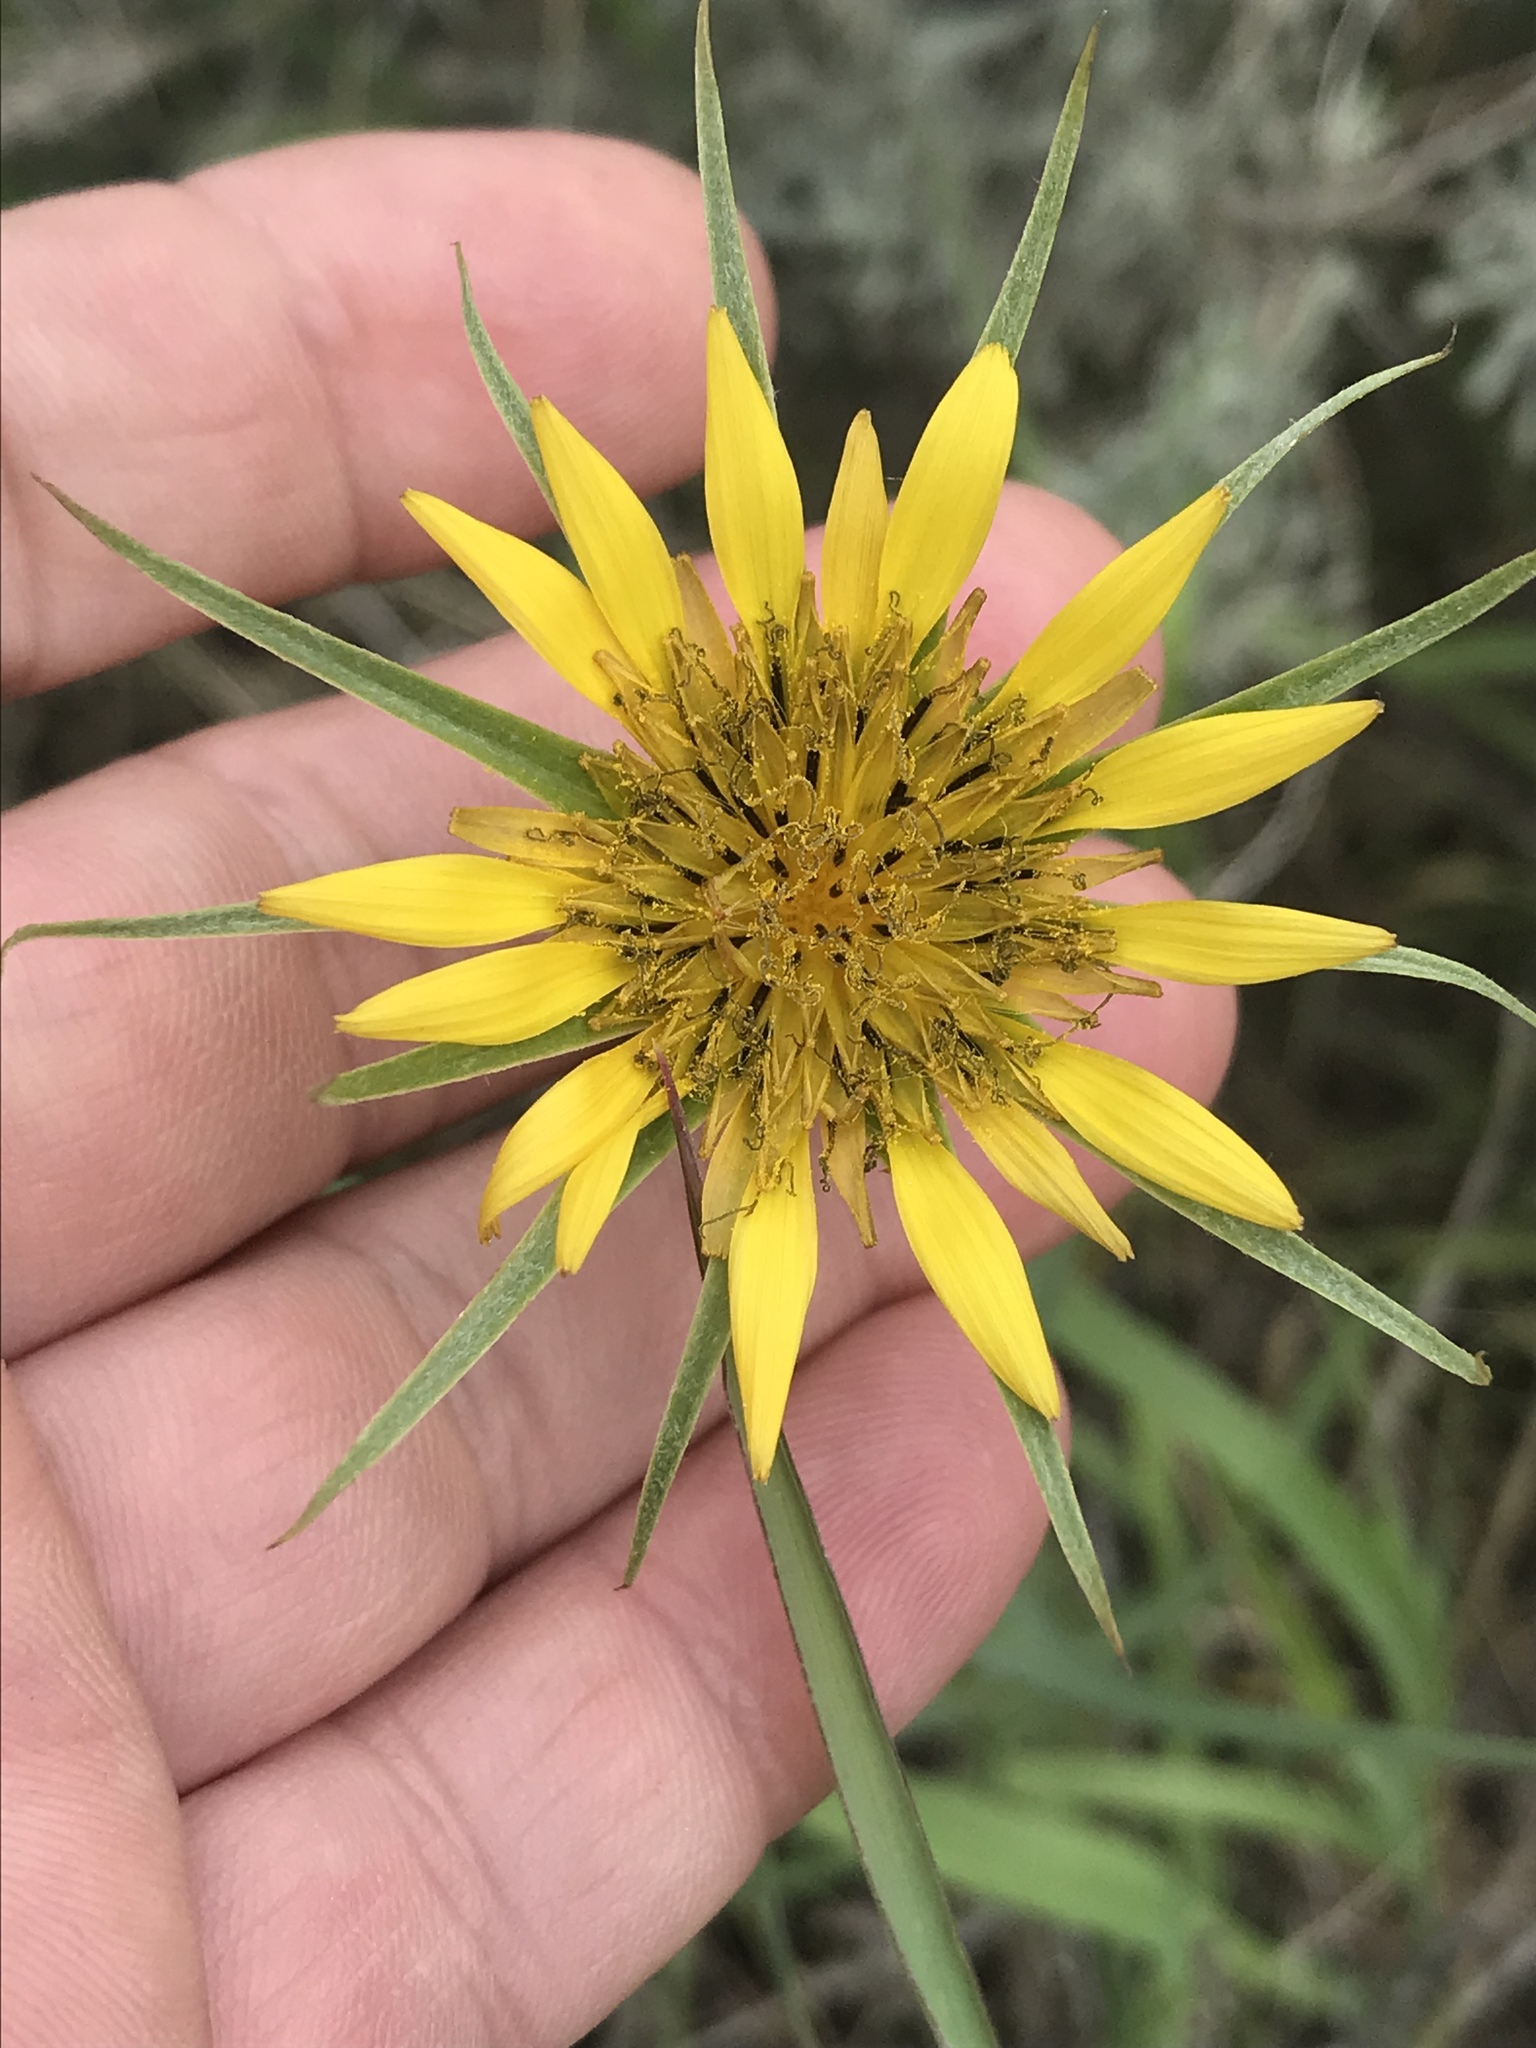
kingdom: Plantae
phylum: Tracheophyta
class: Magnoliopsida
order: Asterales
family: Asteraceae
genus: Tragopogon
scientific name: Tragopogon dubius
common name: Yellow salsify
